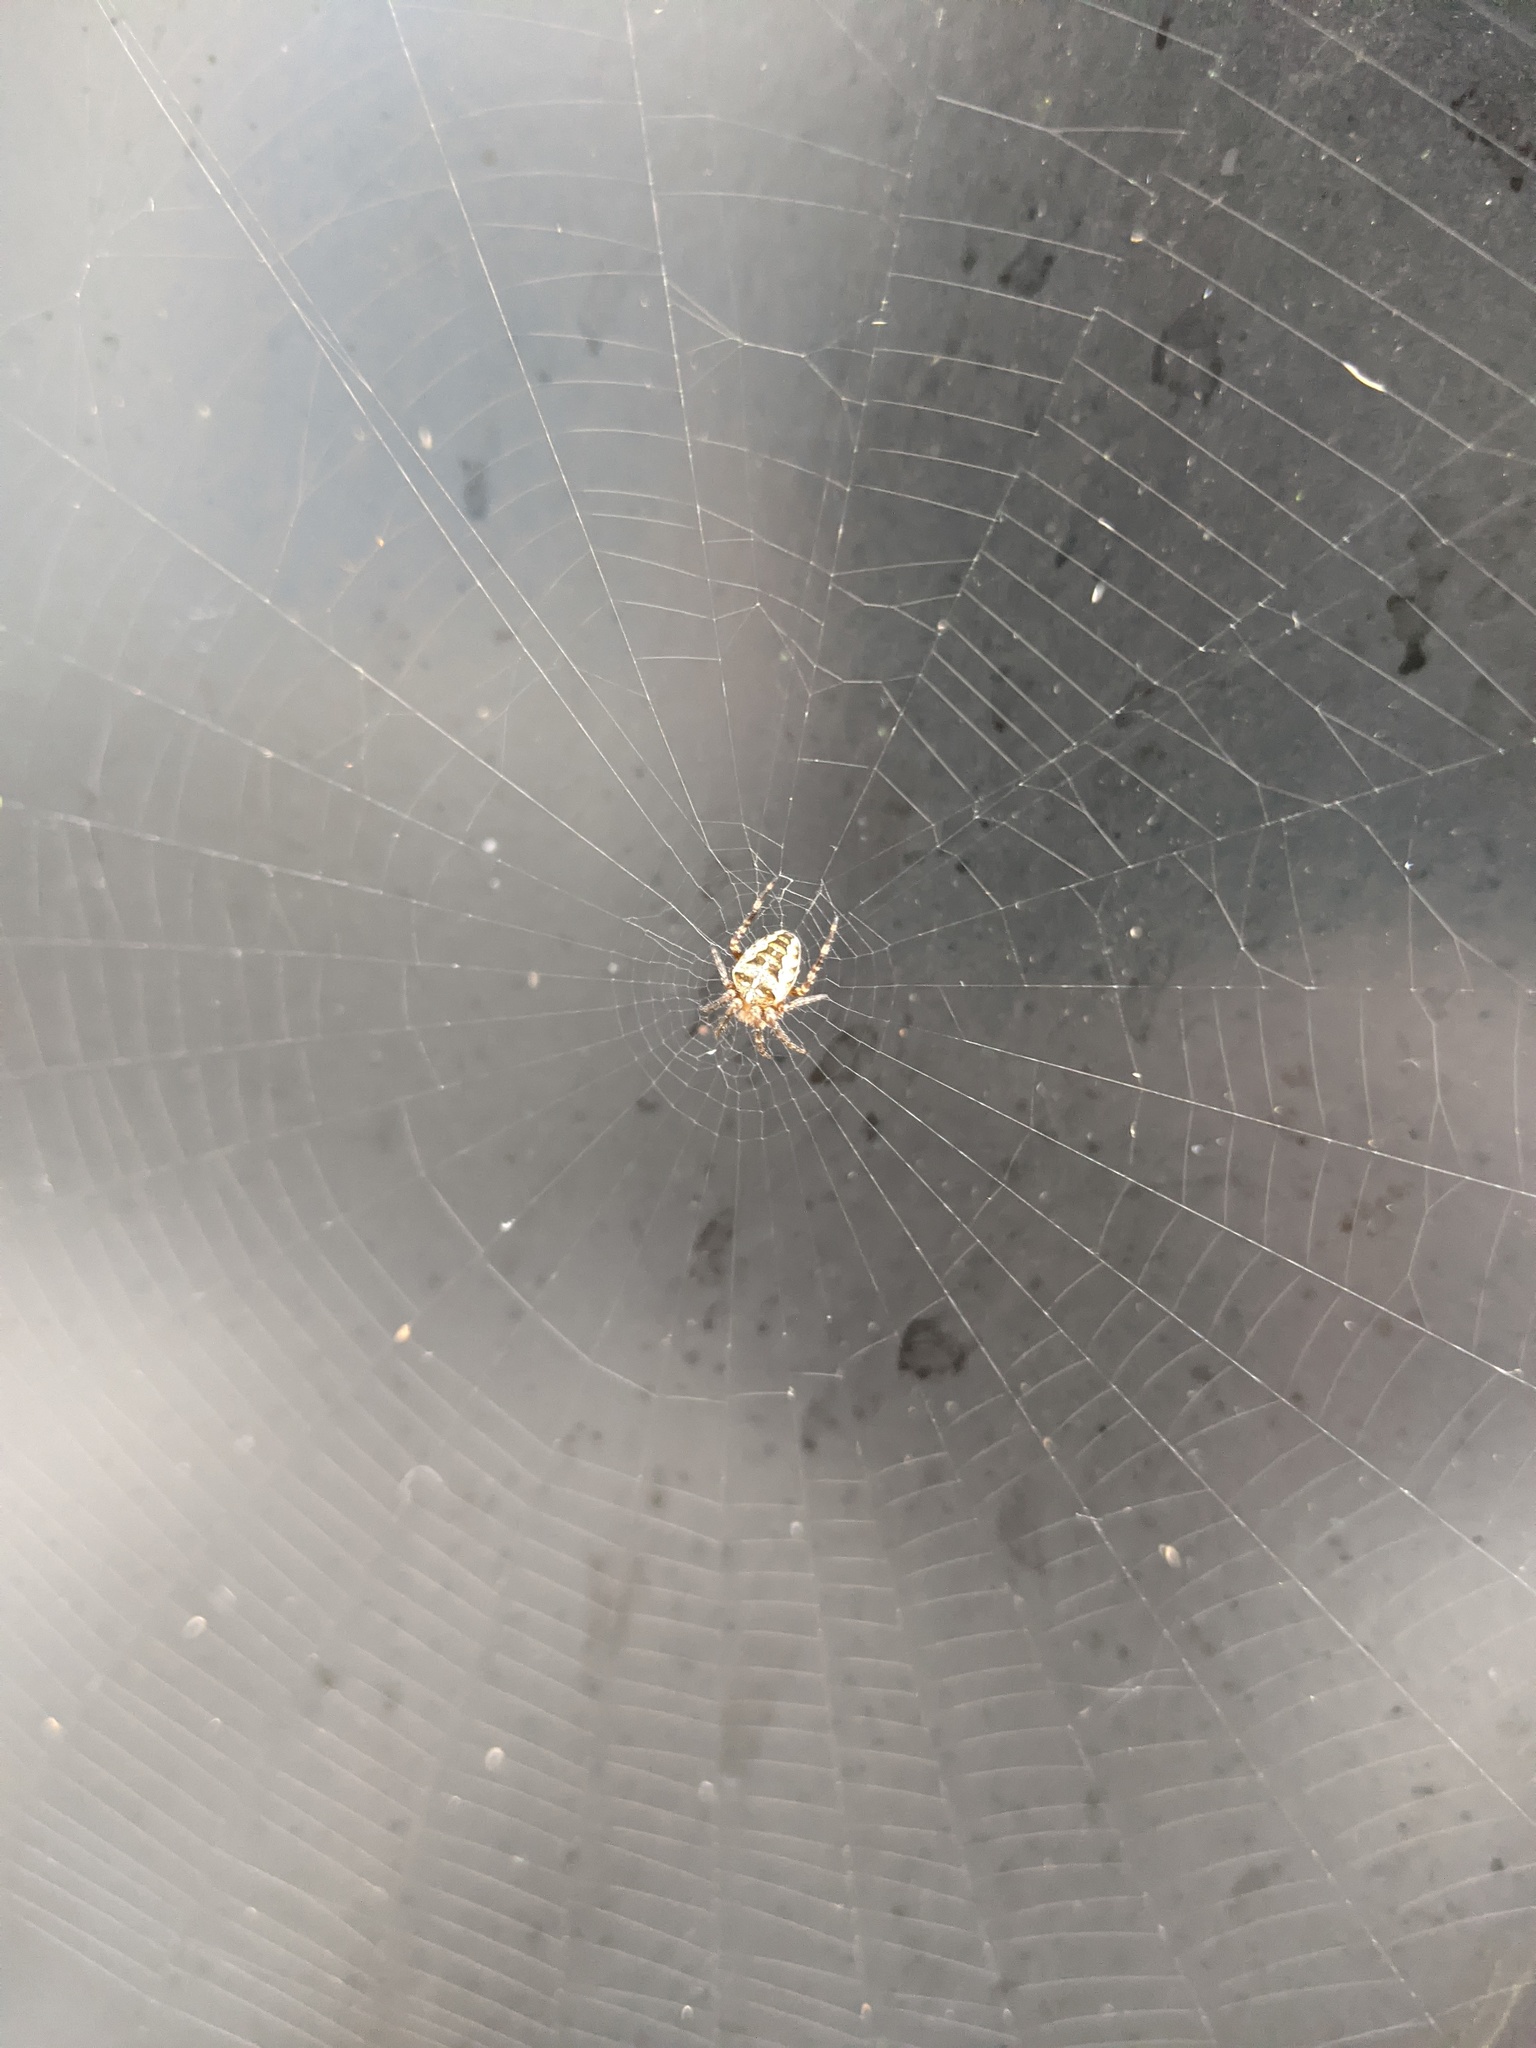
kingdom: Animalia
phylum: Arthropoda
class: Arachnida
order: Araneae
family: Araneidae
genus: Araneus
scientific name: Araneus diadematus
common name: Cross orbweaver
